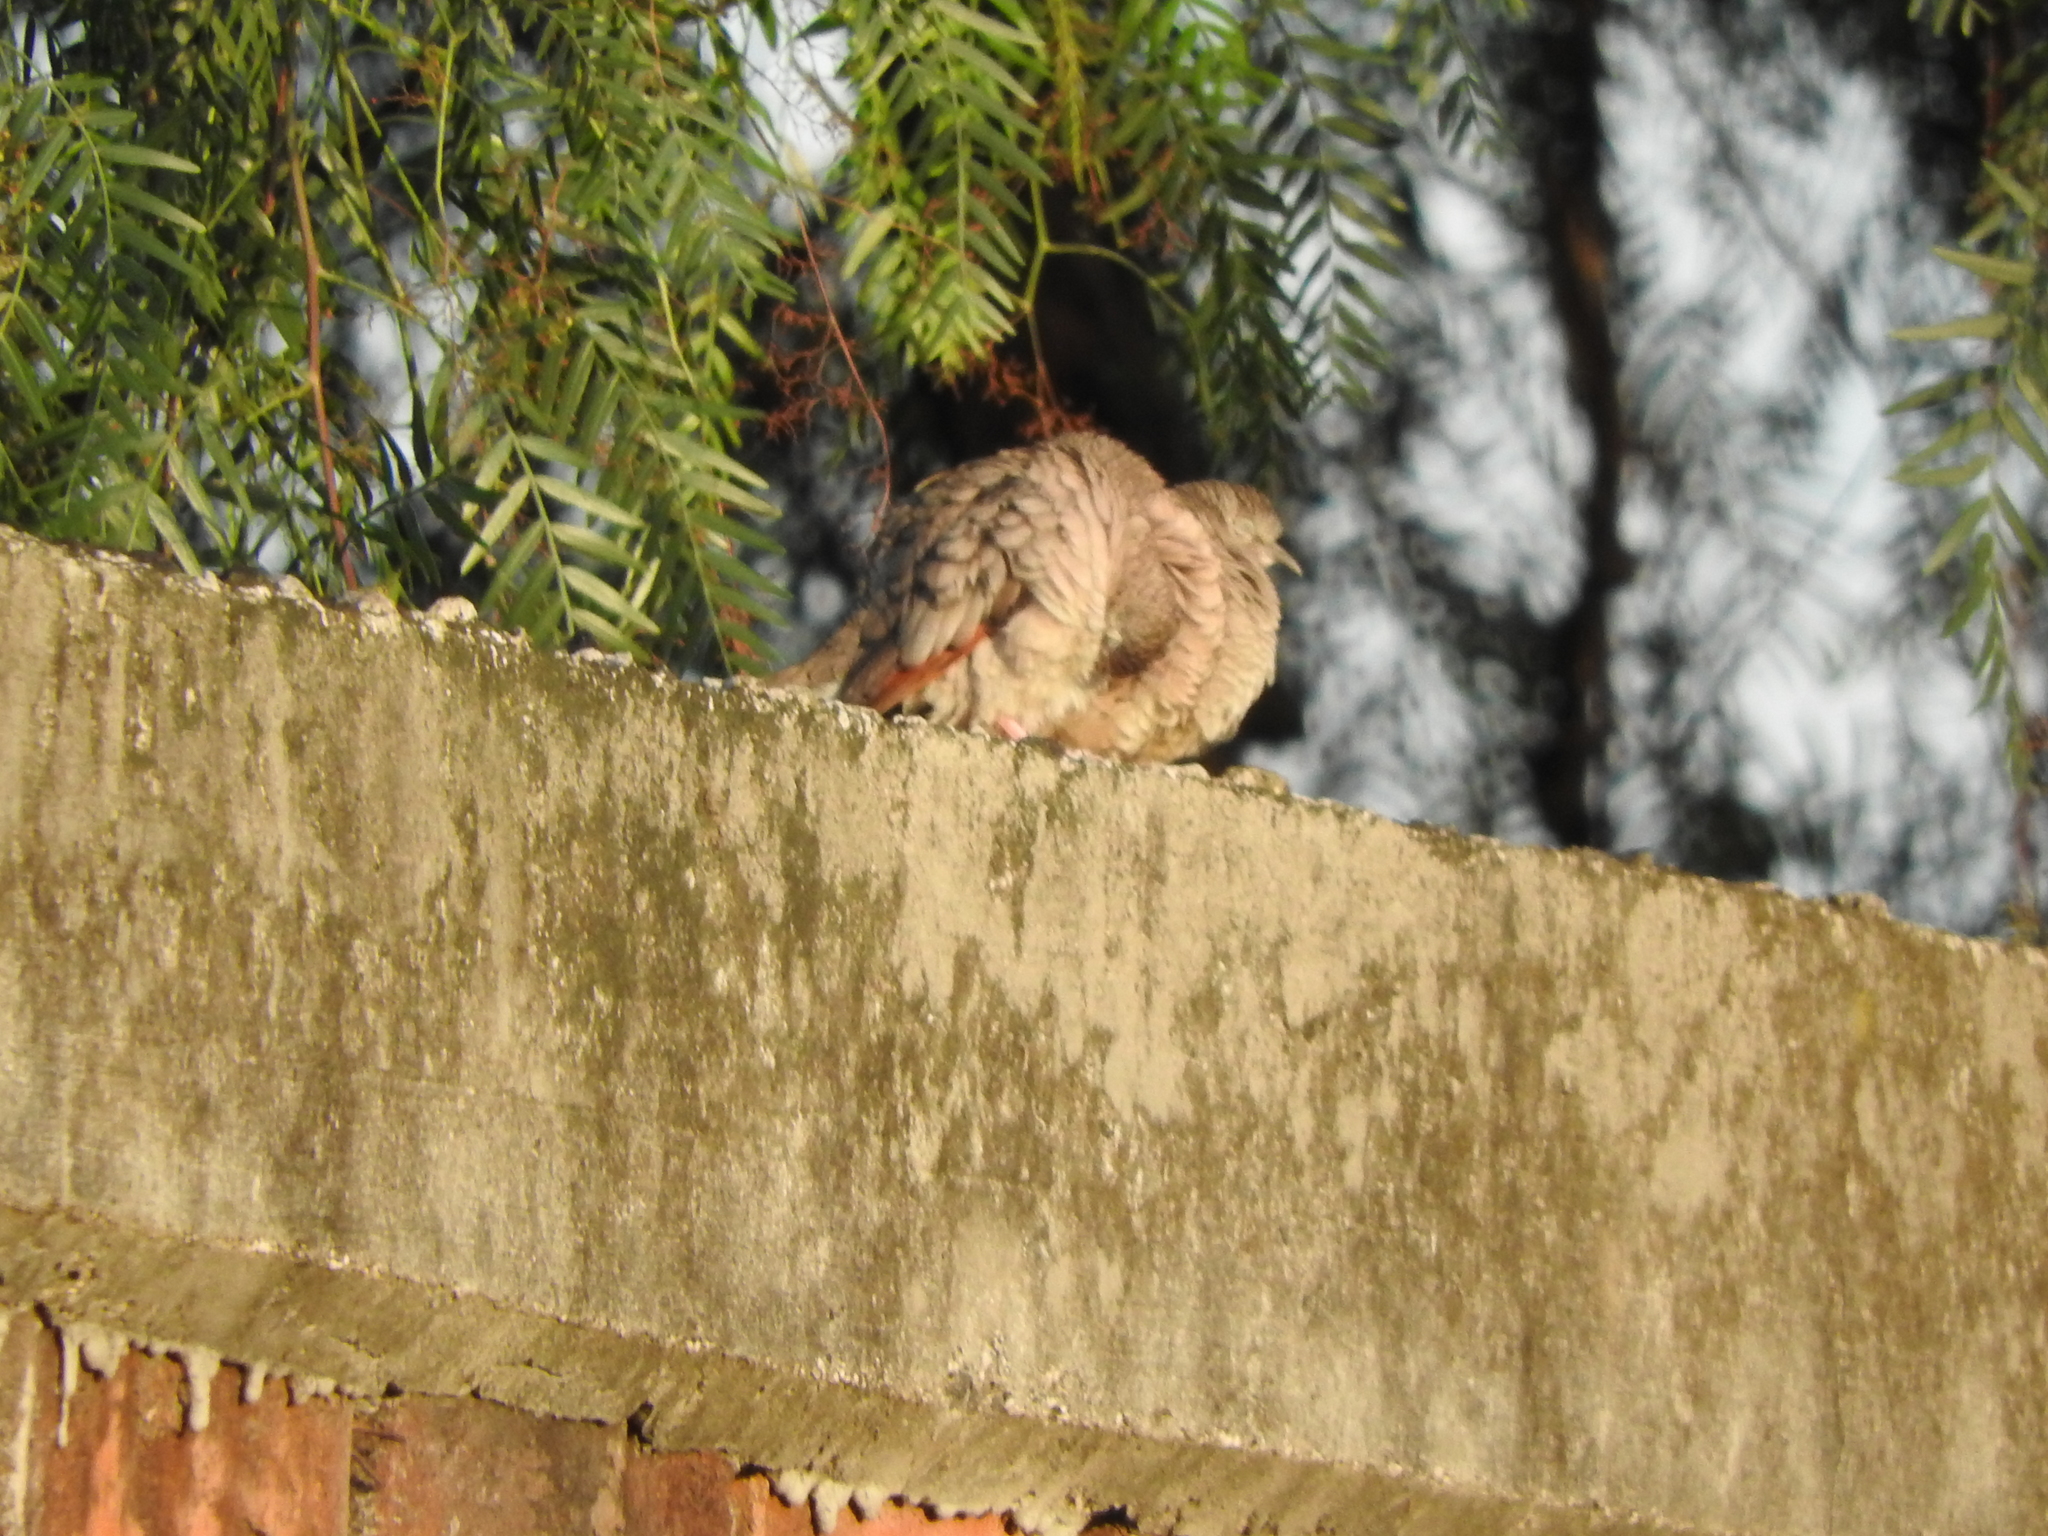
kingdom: Animalia
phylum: Chordata
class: Aves
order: Columbiformes
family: Columbidae
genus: Columbina
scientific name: Columbina inca
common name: Inca dove
